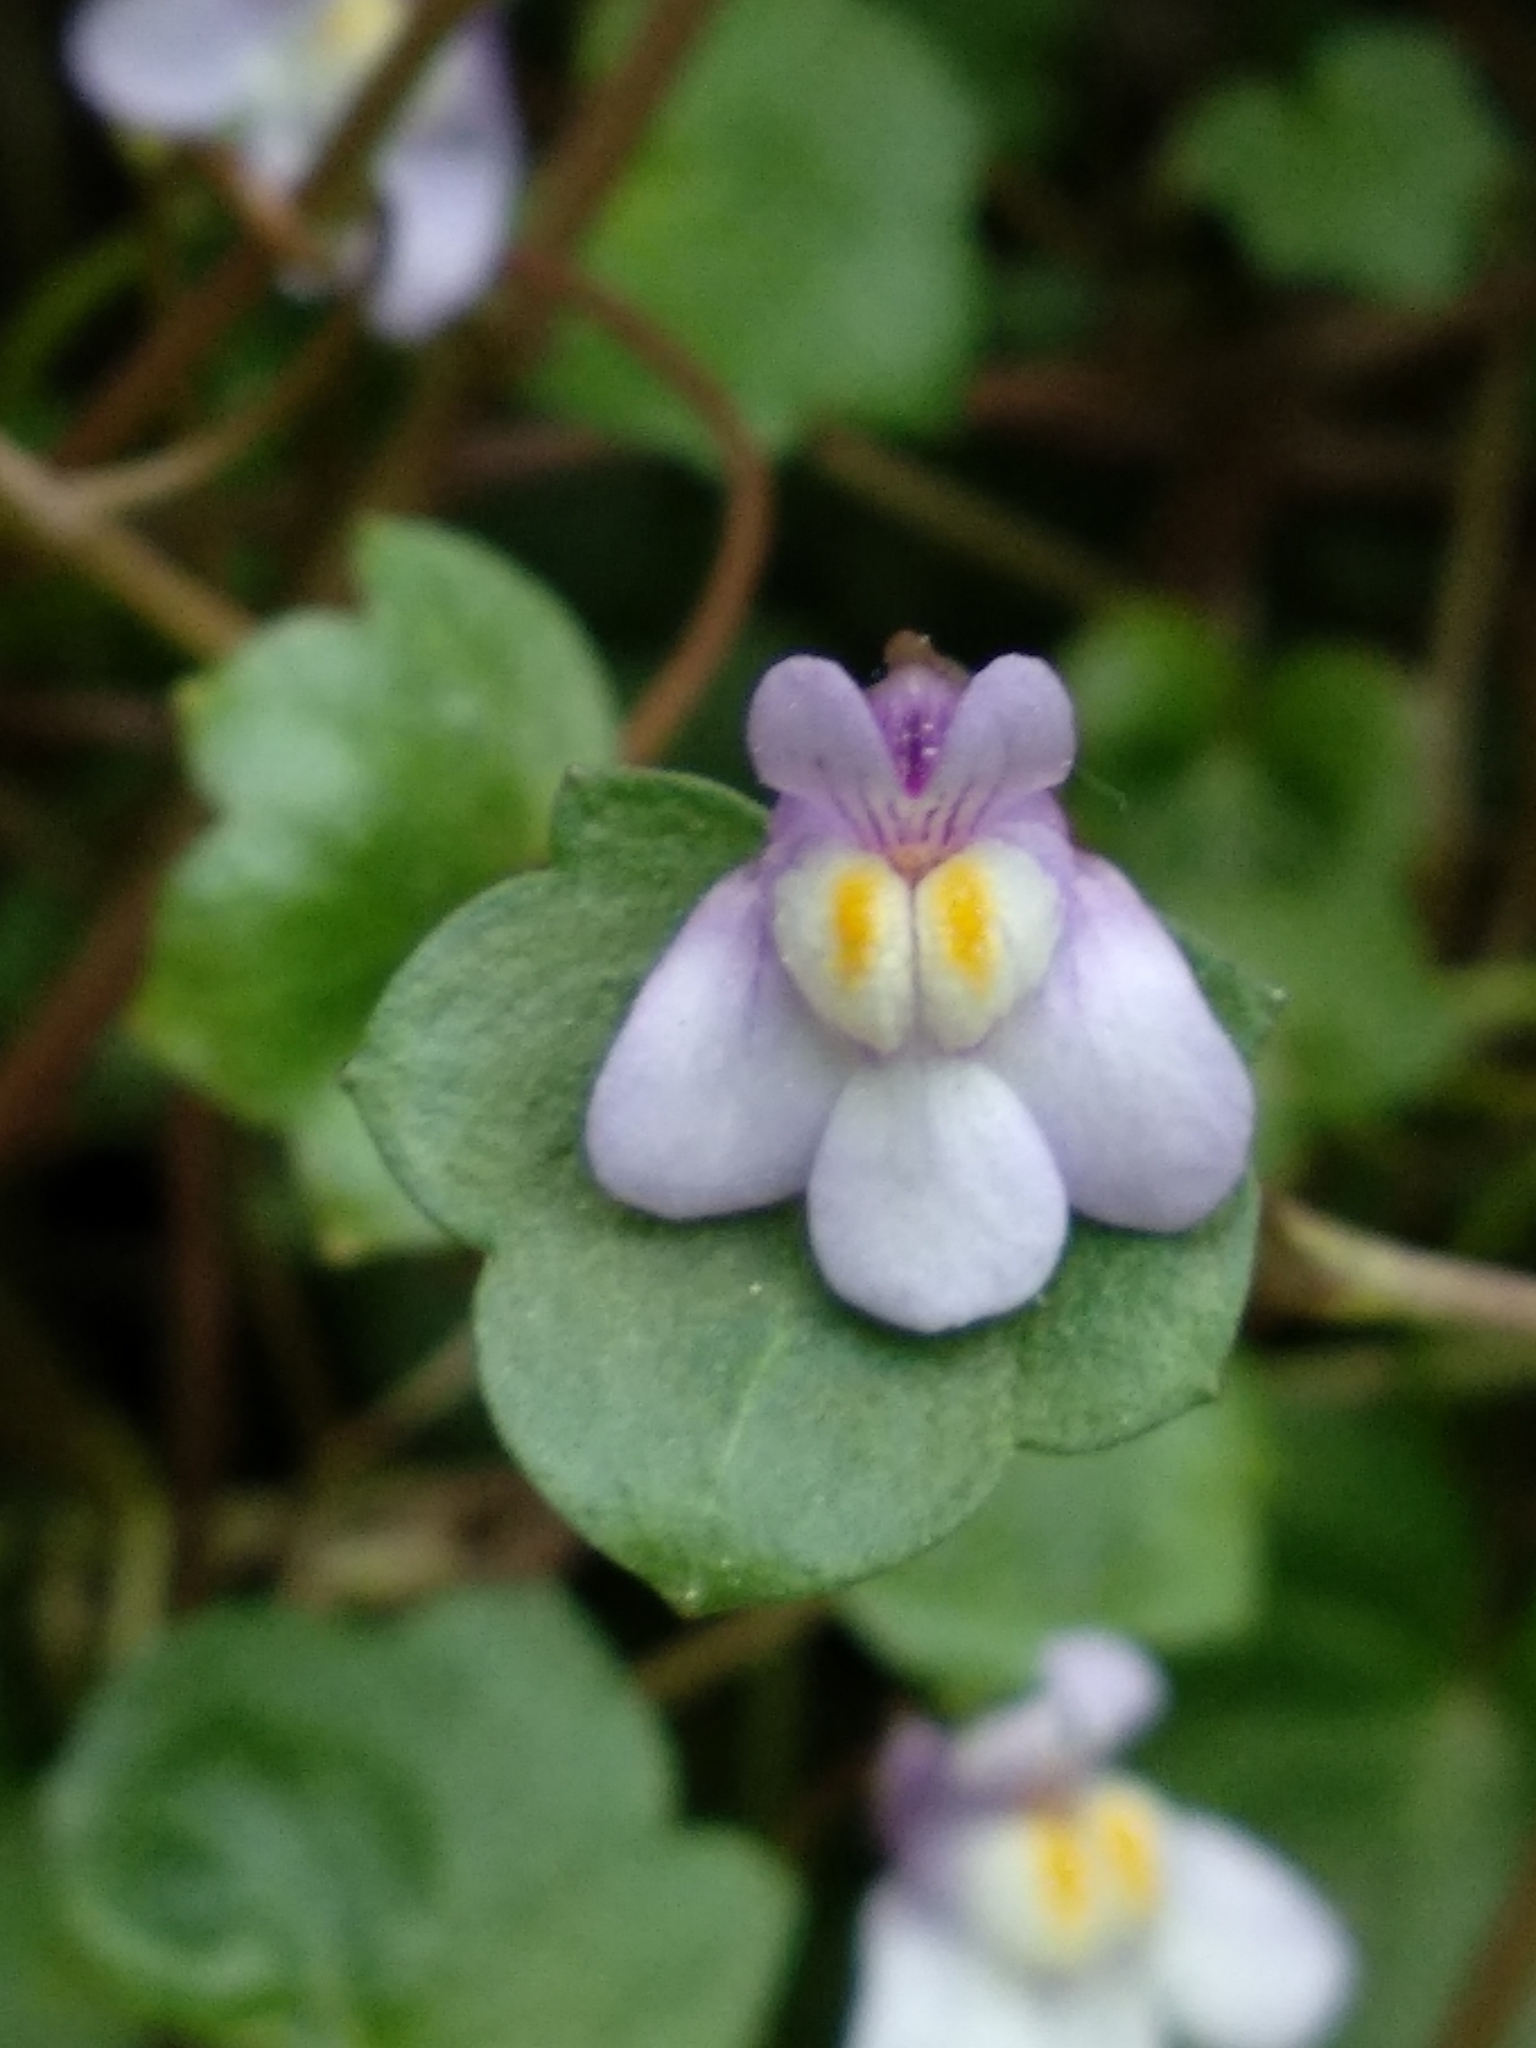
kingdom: Plantae
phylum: Tracheophyta
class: Magnoliopsida
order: Lamiales
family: Plantaginaceae
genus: Cymbalaria
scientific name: Cymbalaria muralis
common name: Ivy-leaved toadflax
